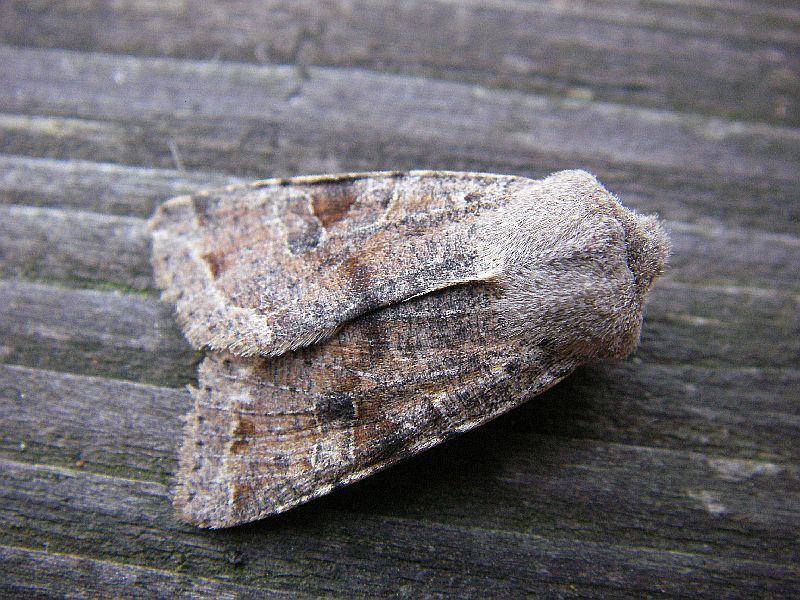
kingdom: Animalia
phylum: Arthropoda
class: Insecta
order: Lepidoptera
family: Noctuidae
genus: Orthosia
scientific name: Orthosia incerta
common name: Clouded drab
